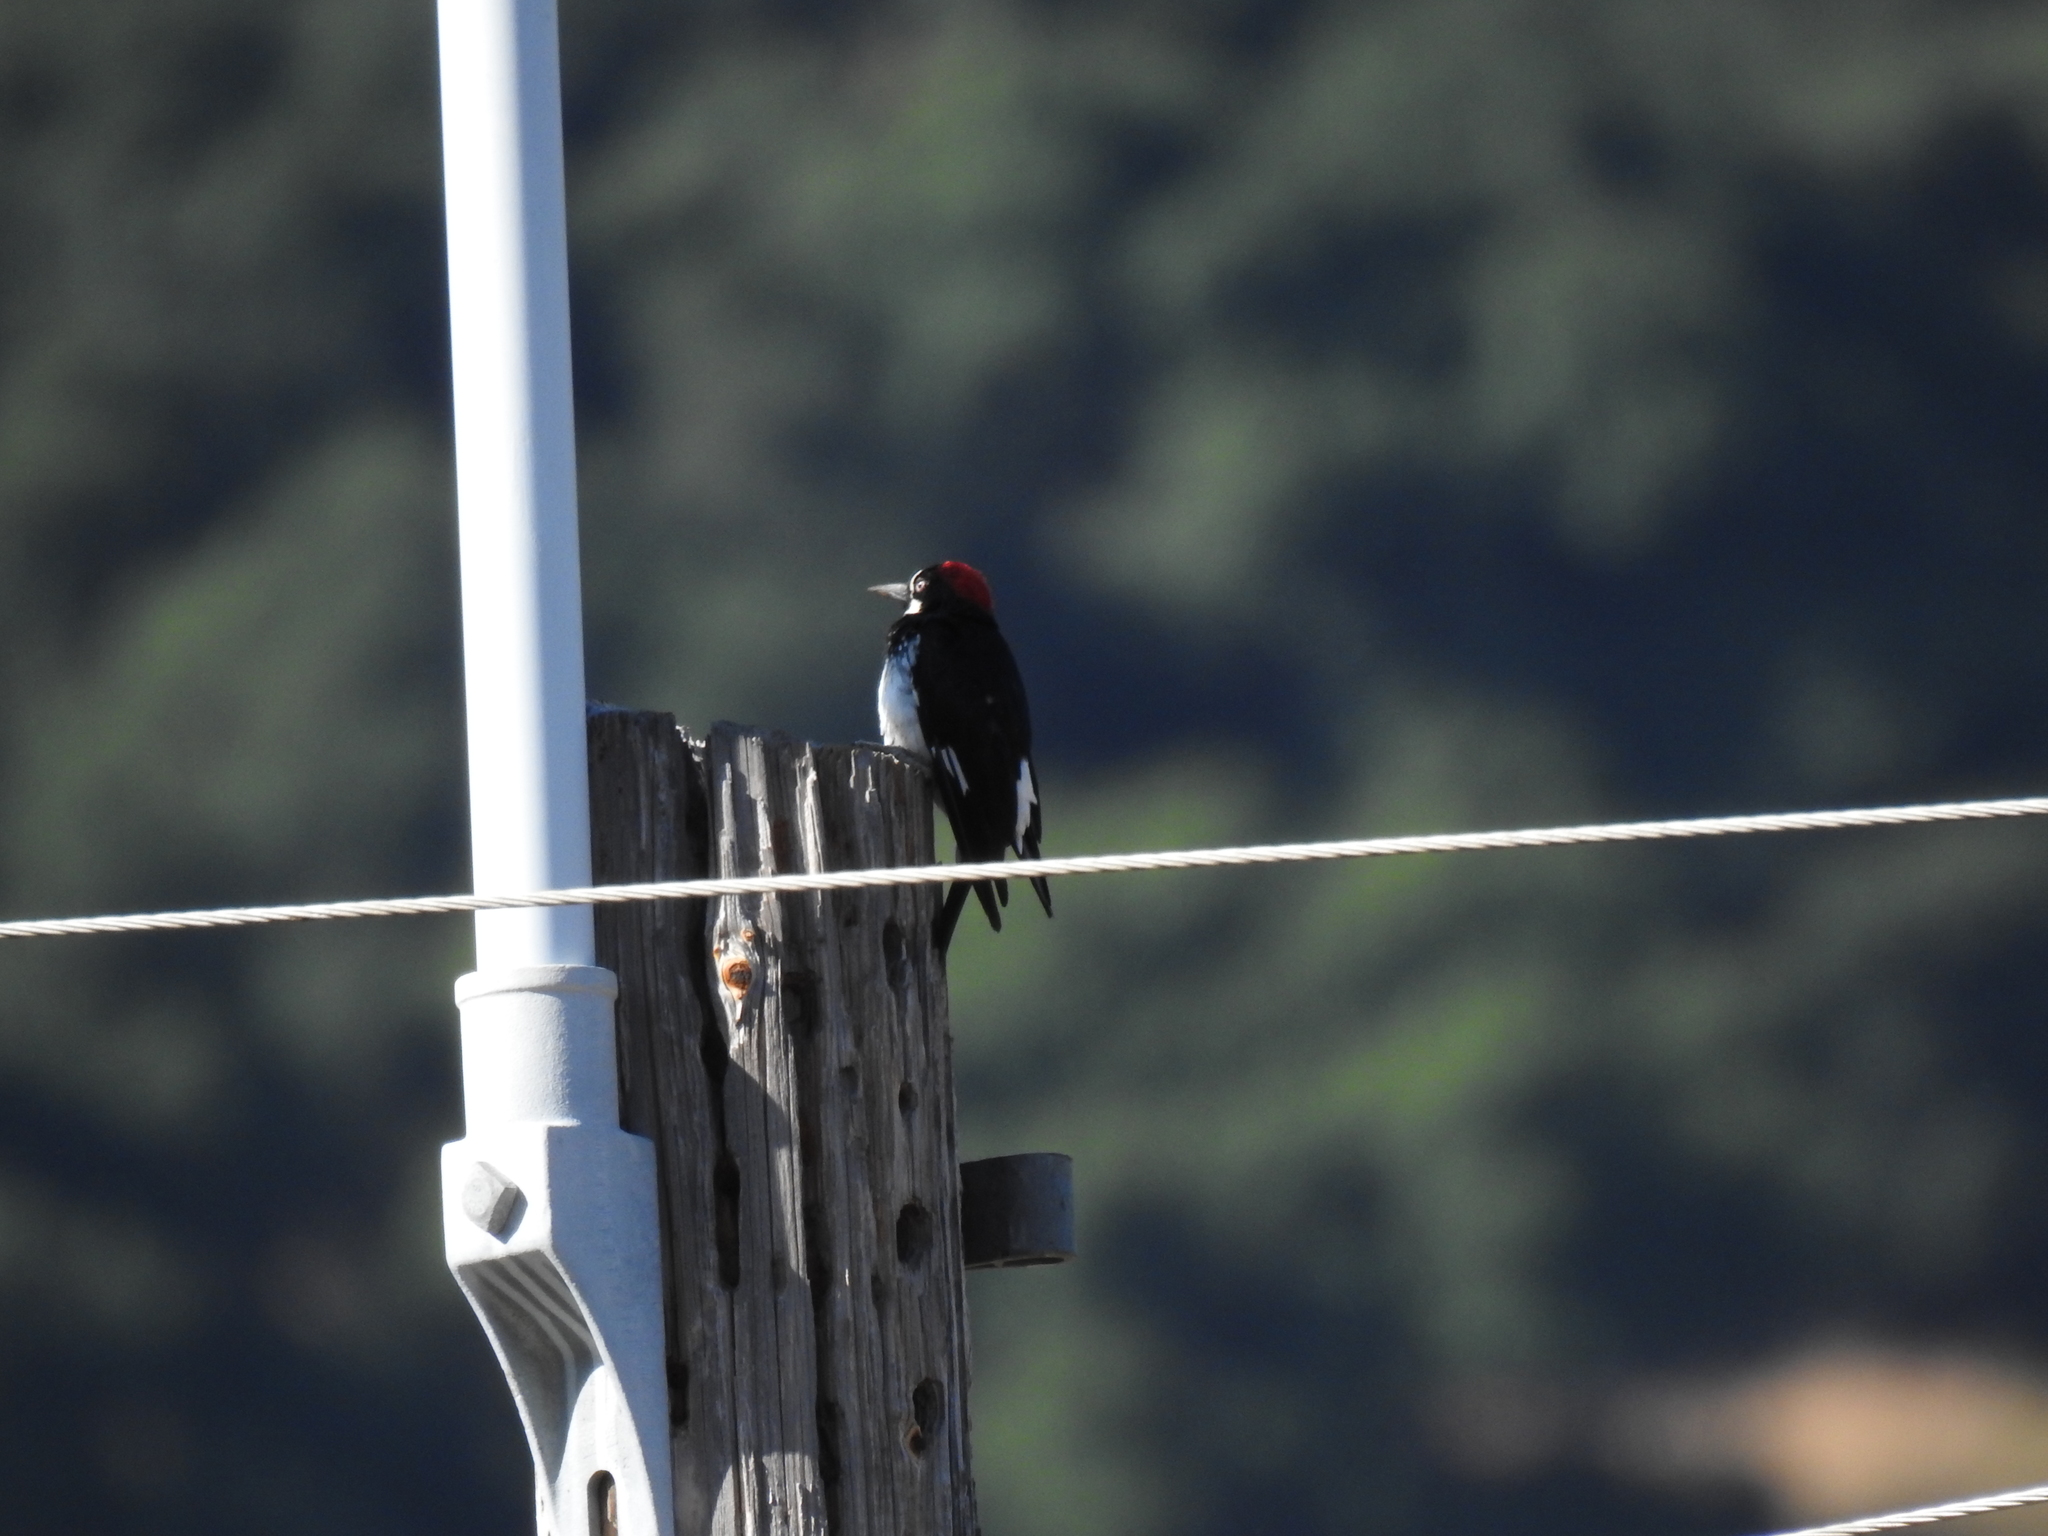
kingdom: Animalia
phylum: Chordata
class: Aves
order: Piciformes
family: Picidae
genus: Melanerpes
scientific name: Melanerpes formicivorus
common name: Acorn woodpecker
